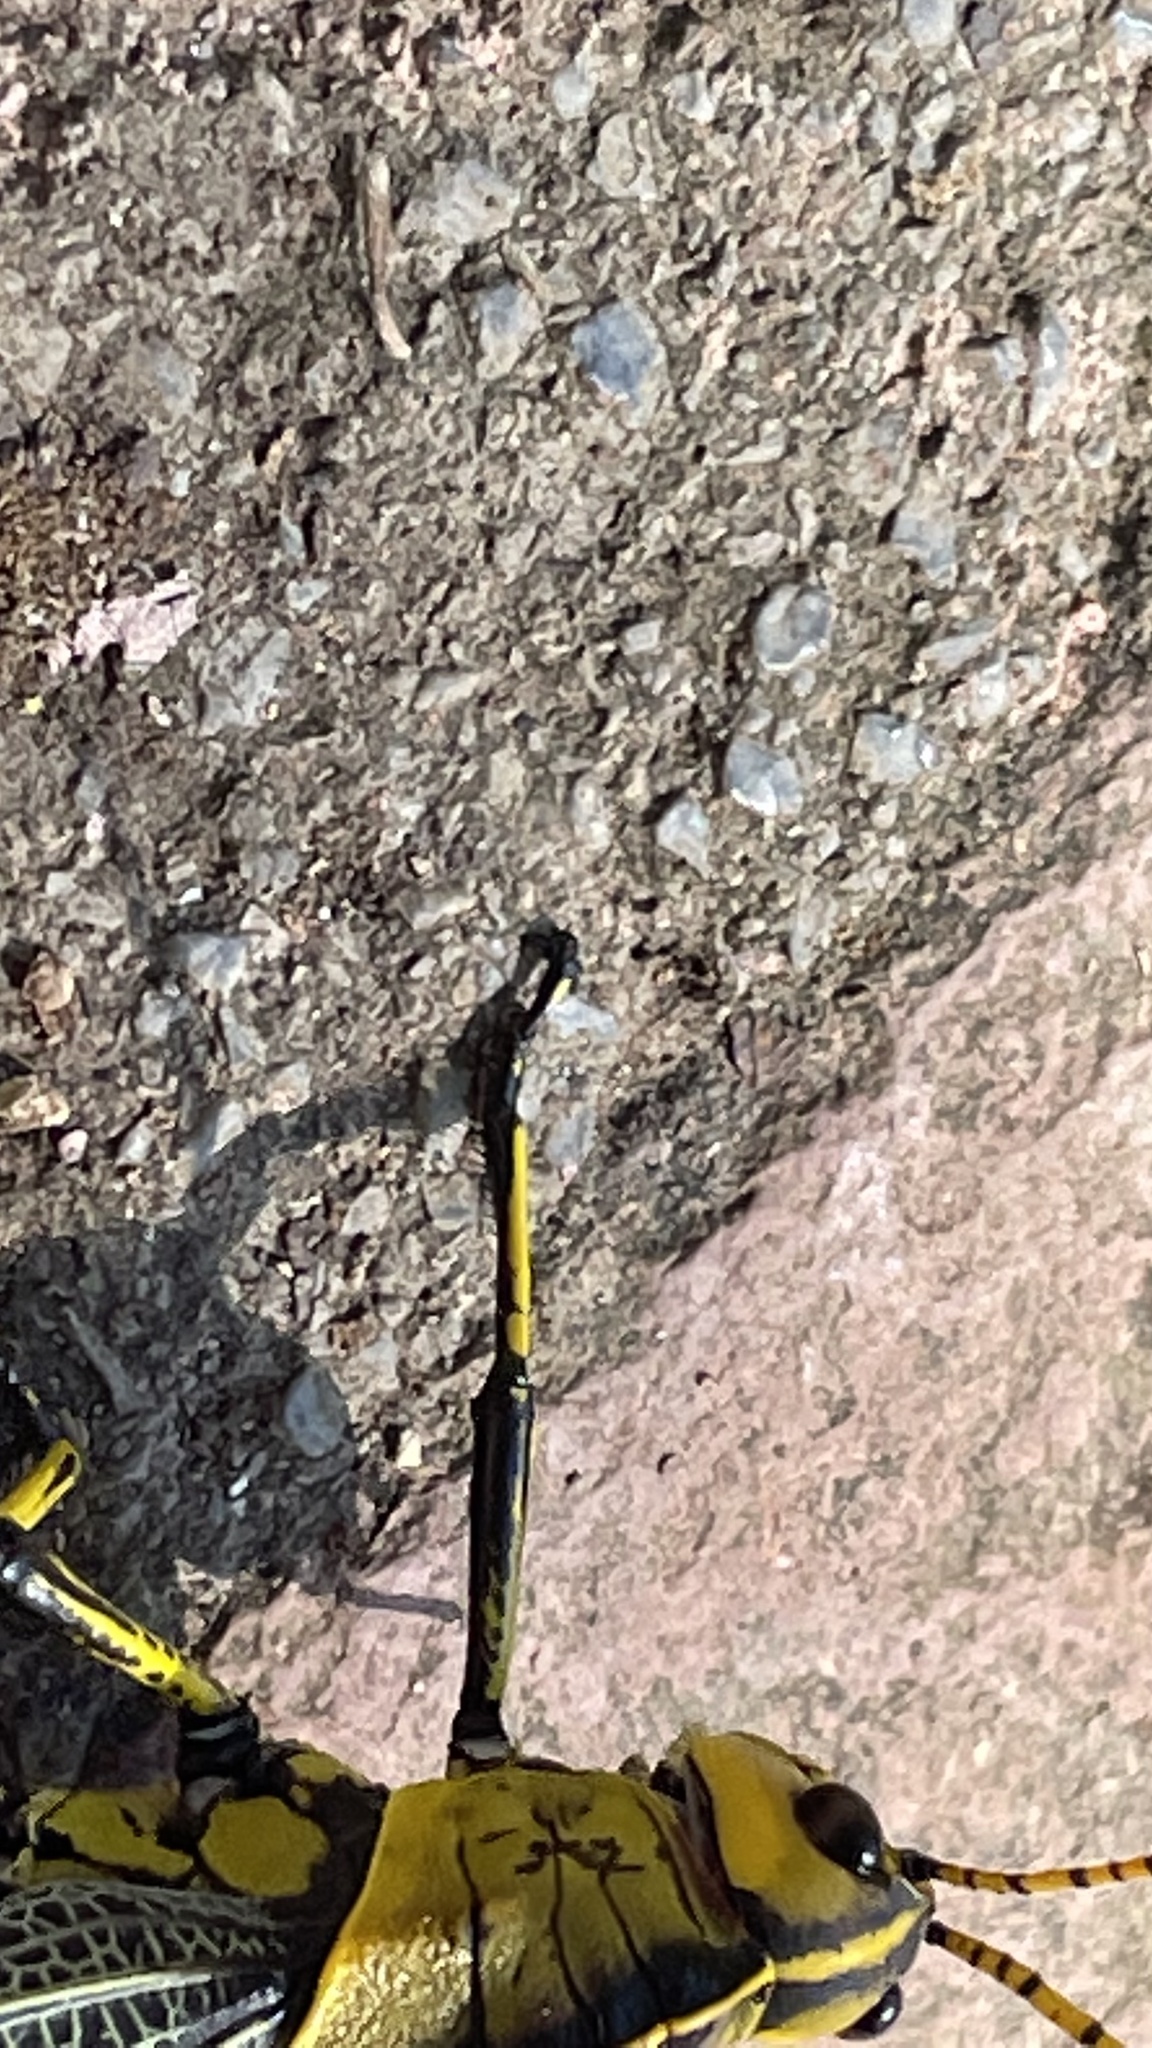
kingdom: Animalia
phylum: Arthropoda
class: Insecta
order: Orthoptera
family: Romaleidae
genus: Romalea
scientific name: Romalea
